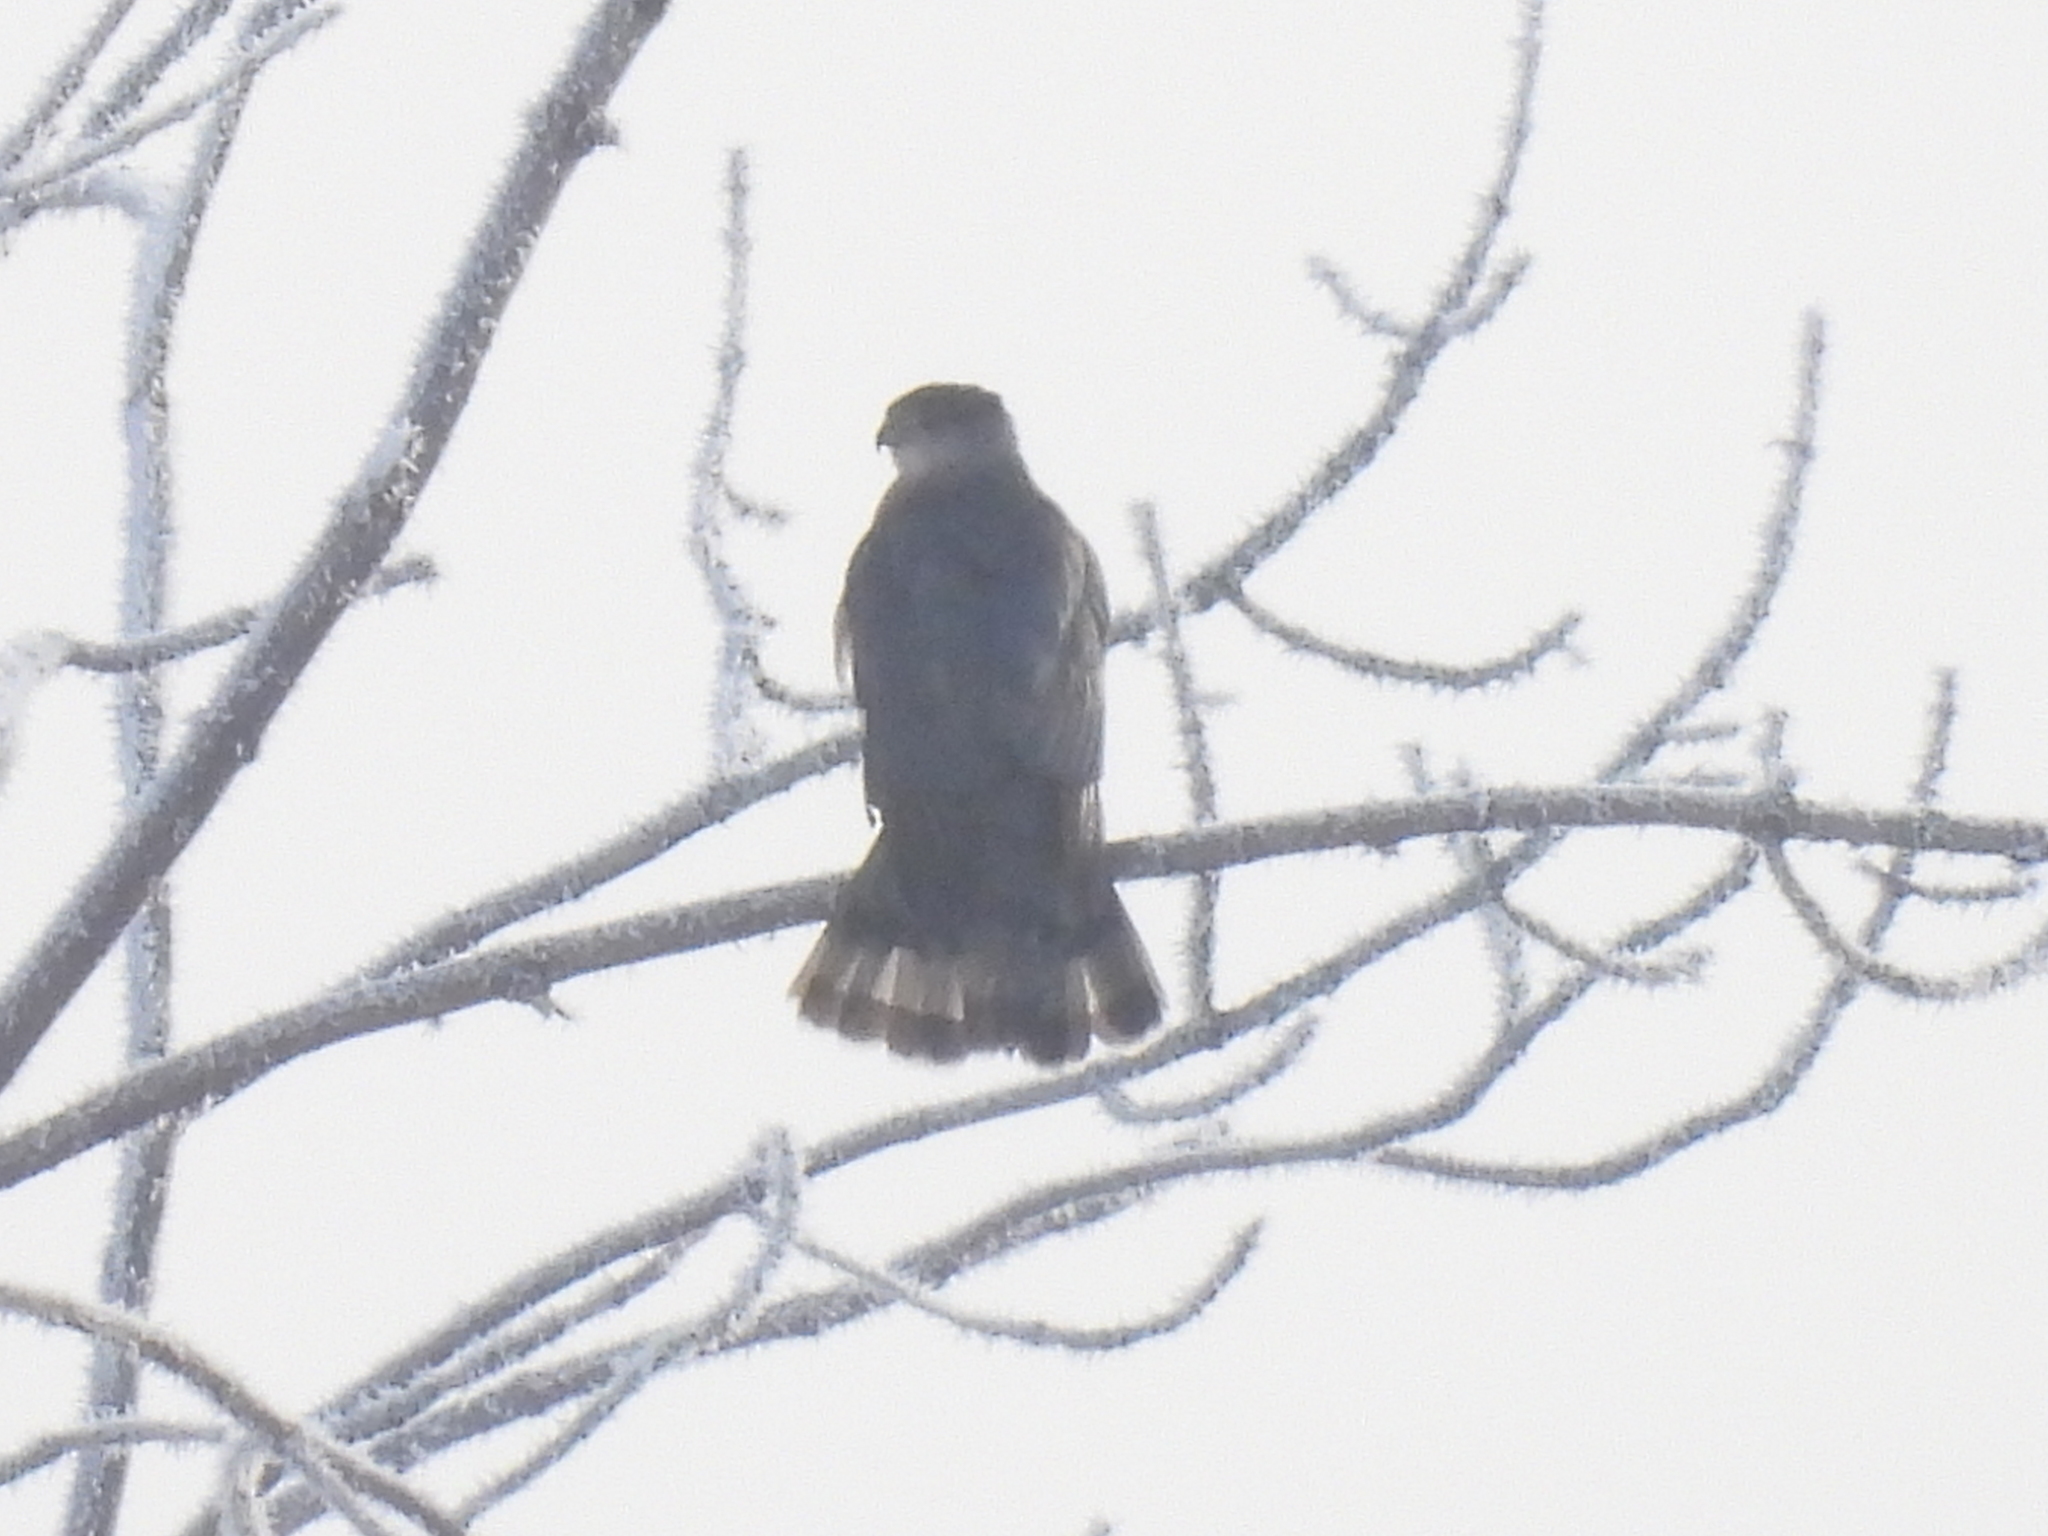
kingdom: Animalia
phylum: Chordata
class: Aves
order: Accipitriformes
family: Accipitridae
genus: Accipiter
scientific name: Accipiter cooperii
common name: Cooper's hawk
